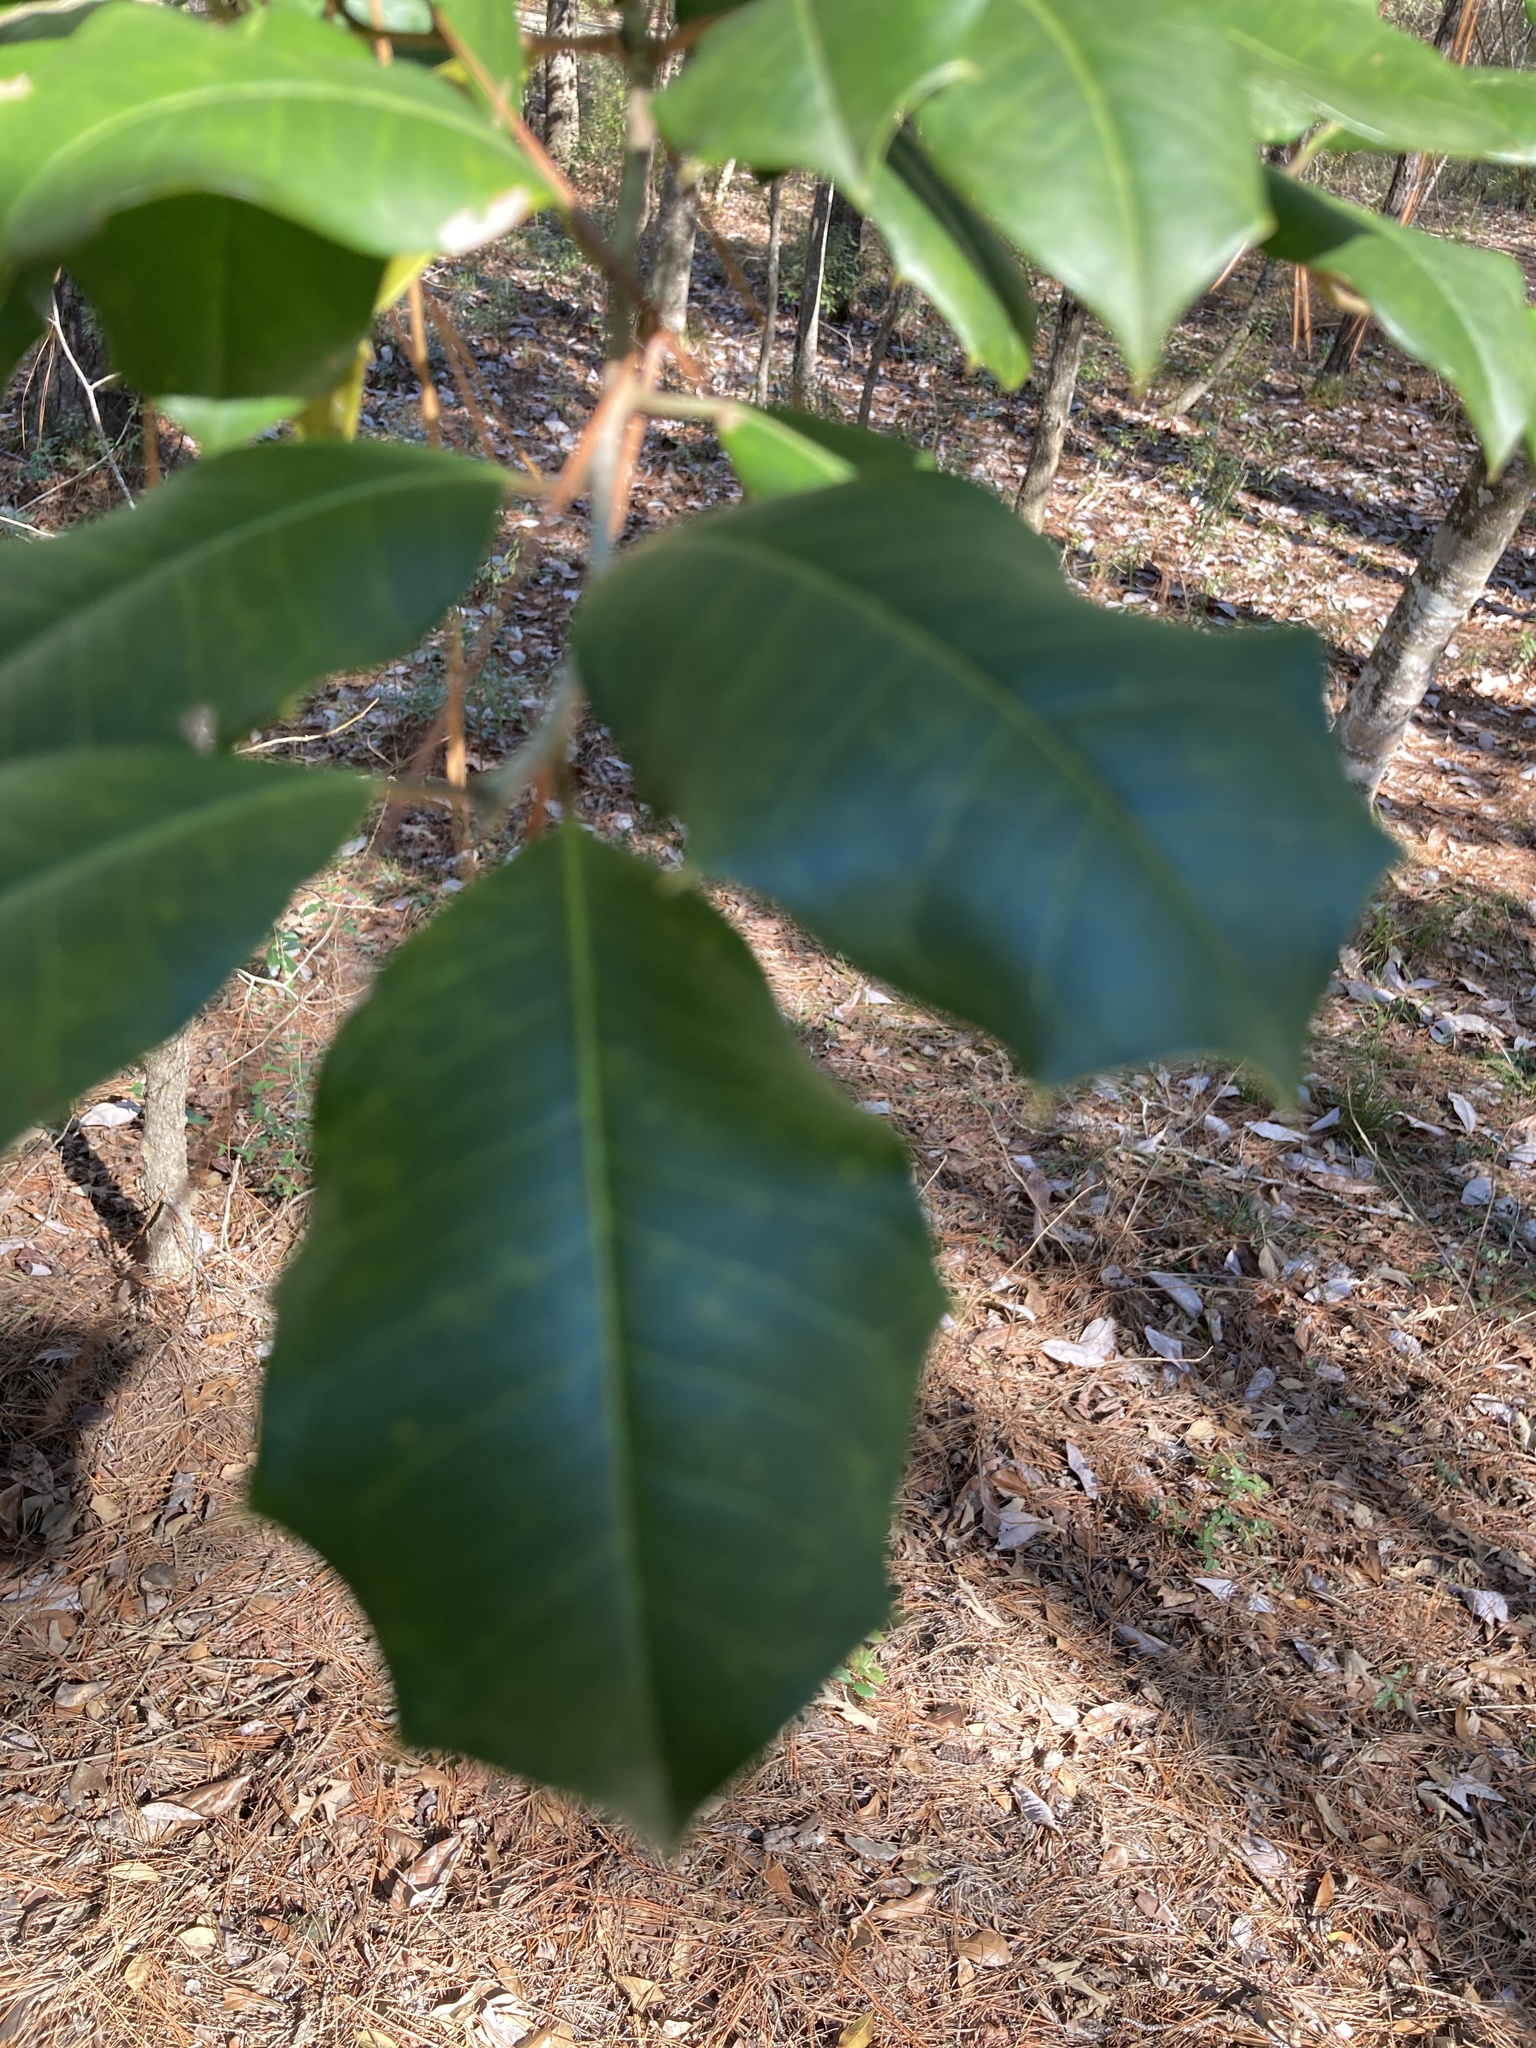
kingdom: Plantae
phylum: Tracheophyta
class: Magnoliopsida
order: Aquifoliales
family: Aquifoliaceae
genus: Ilex
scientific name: Ilex opaca
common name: American holly
